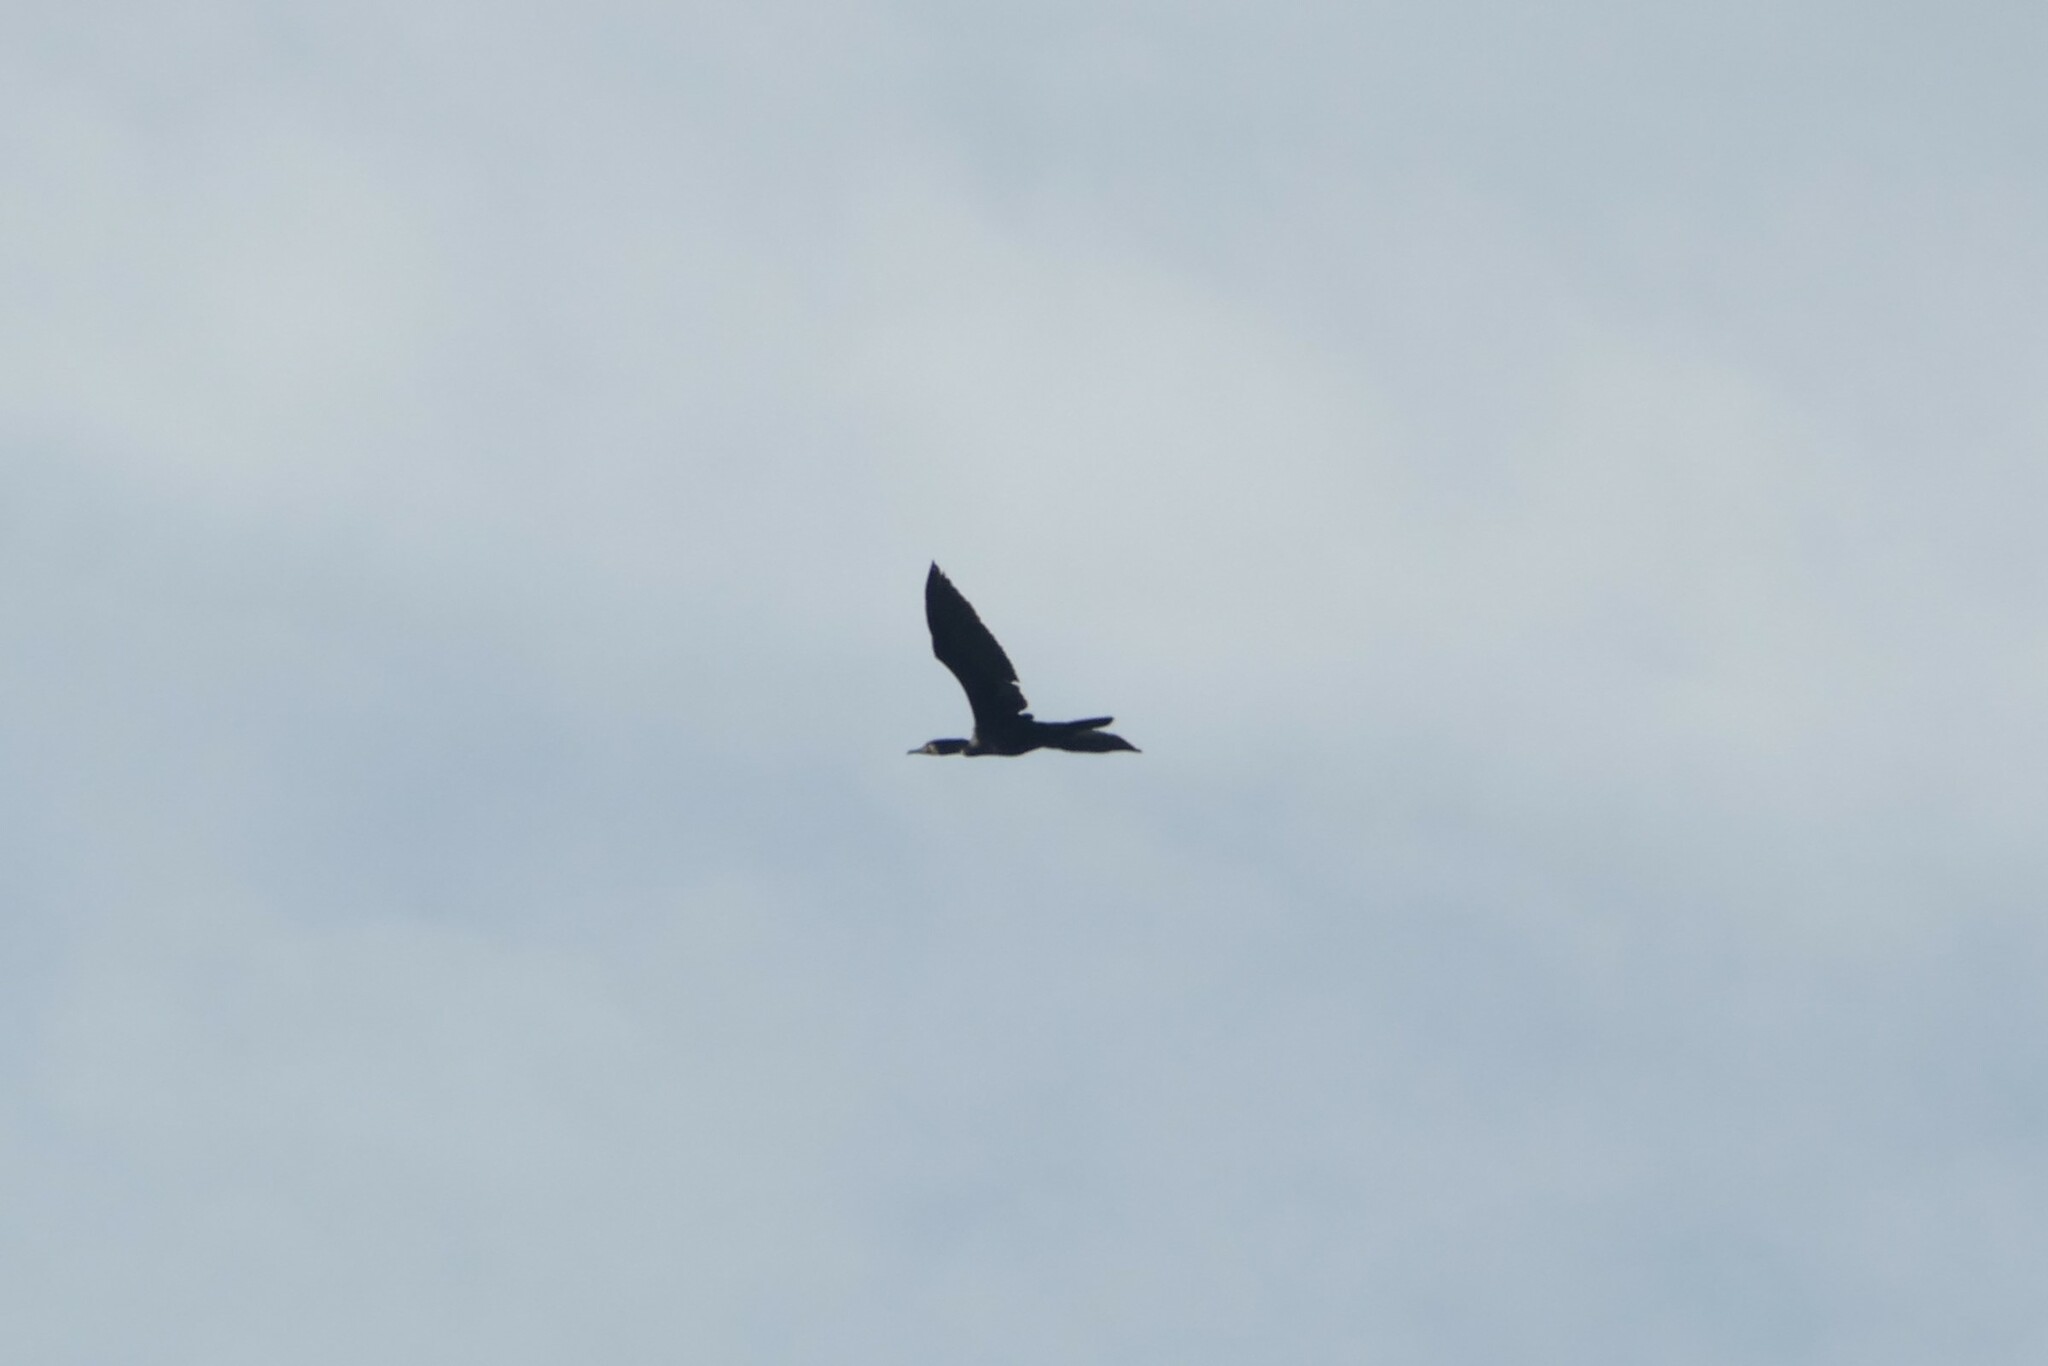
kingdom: Animalia
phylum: Chordata
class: Aves
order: Suliformes
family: Phalacrocoracidae
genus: Phalacrocorax
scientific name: Phalacrocorax carbo
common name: Great cormorant
